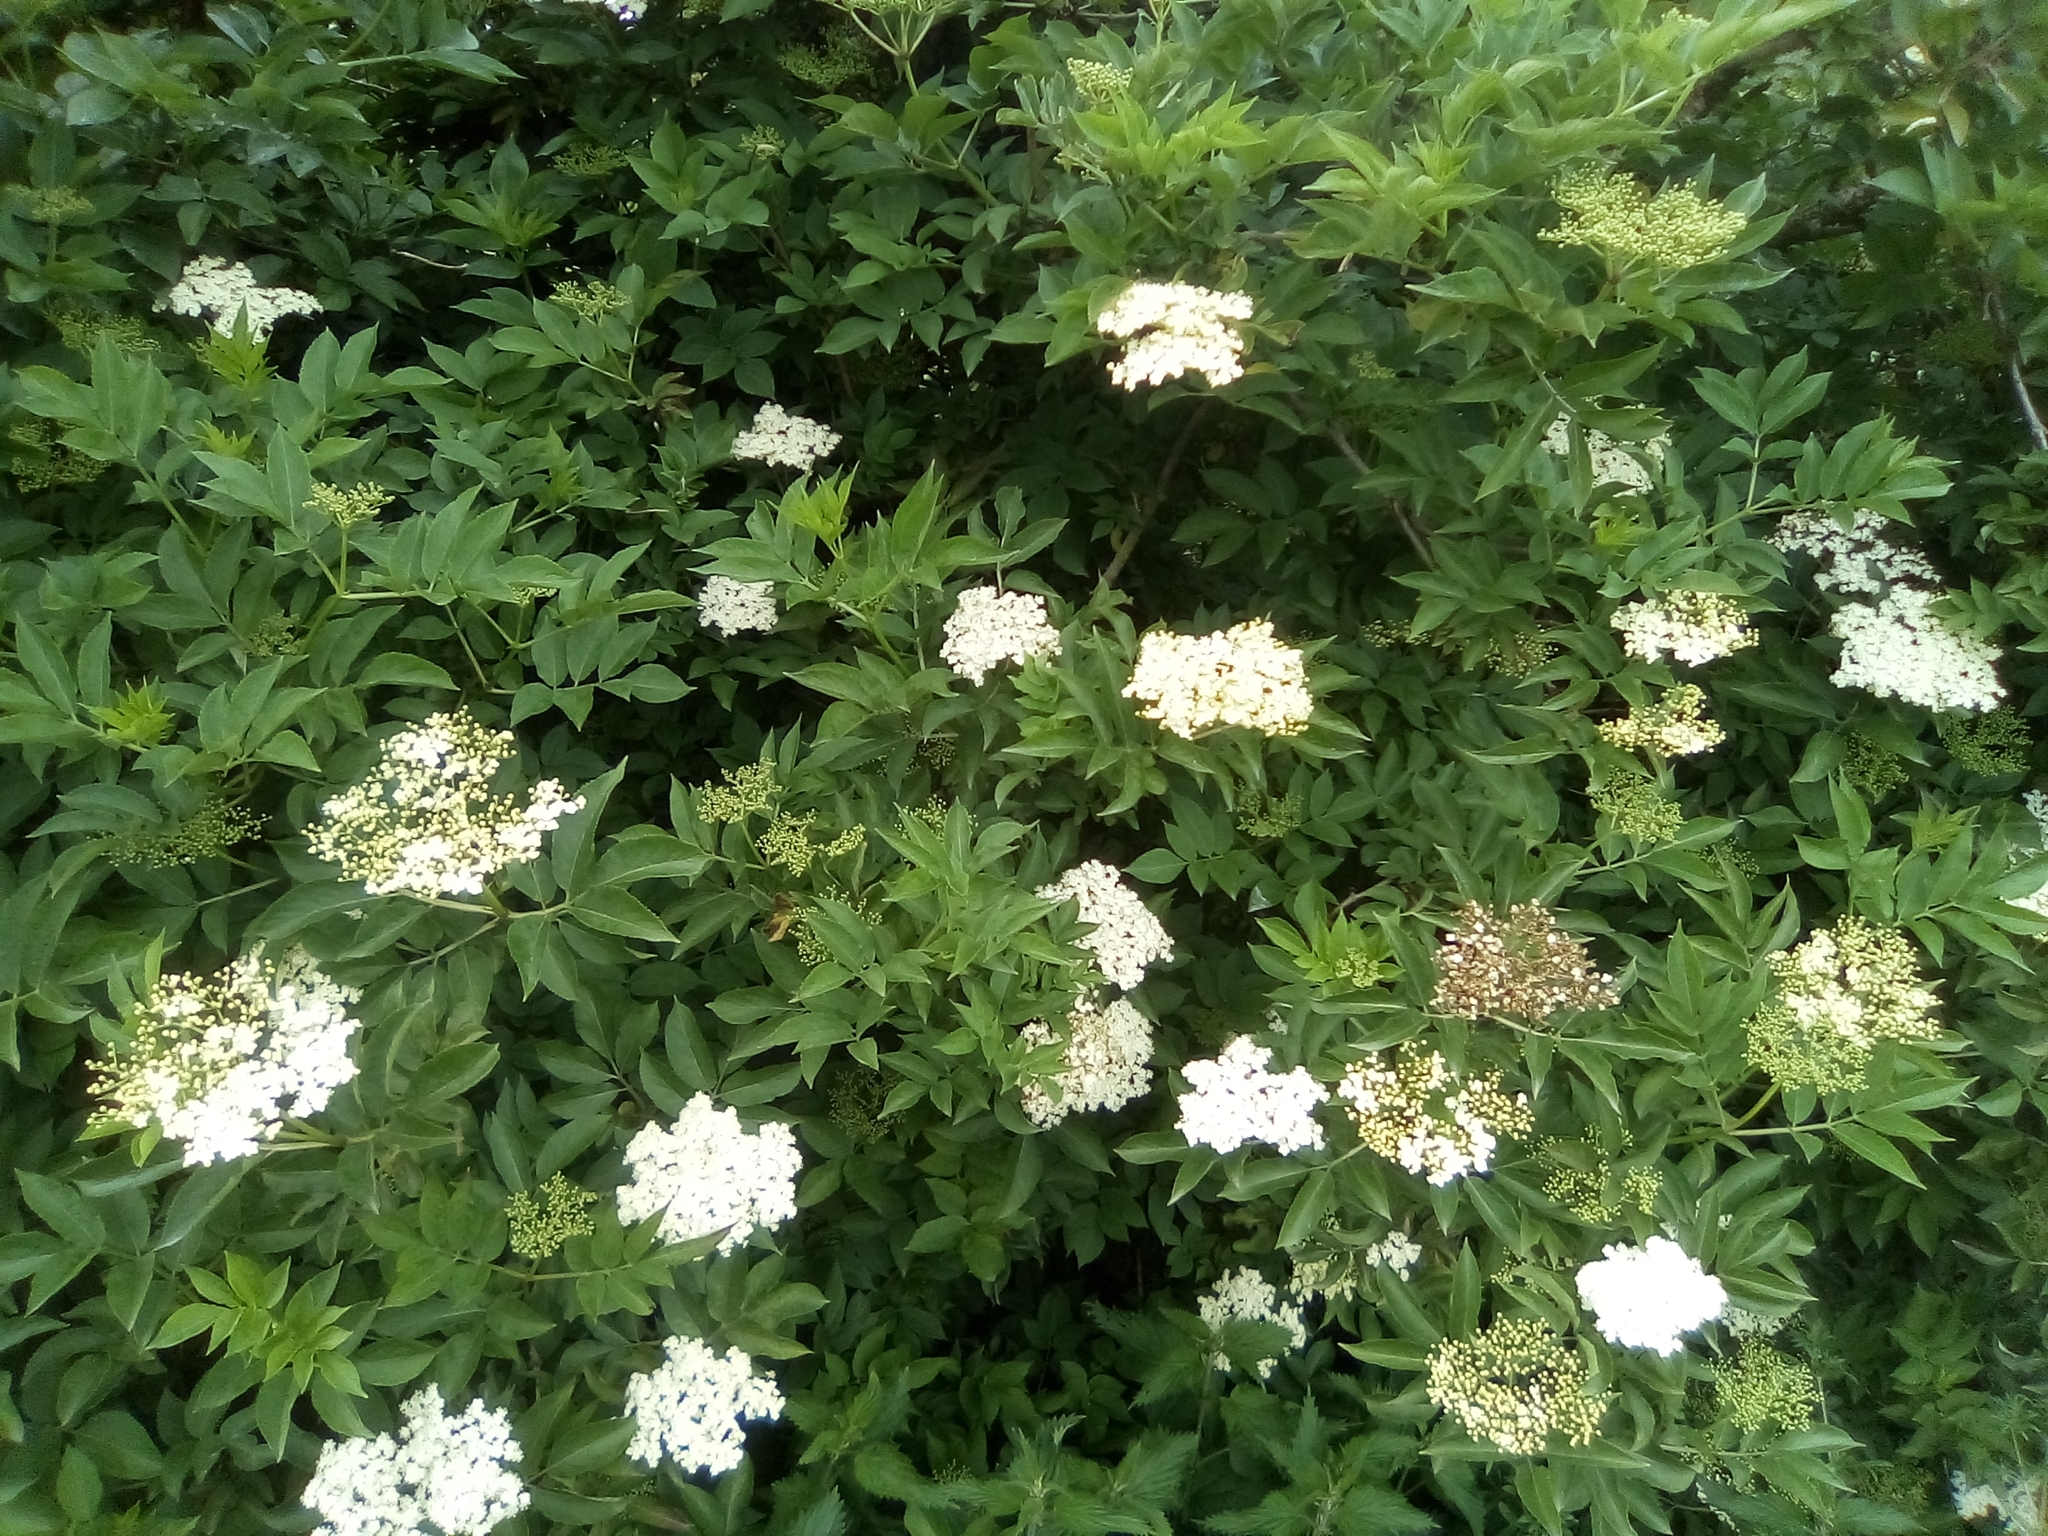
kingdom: Plantae
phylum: Tracheophyta
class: Magnoliopsida
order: Dipsacales
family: Viburnaceae
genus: Sambucus
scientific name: Sambucus nigra
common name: Elder
